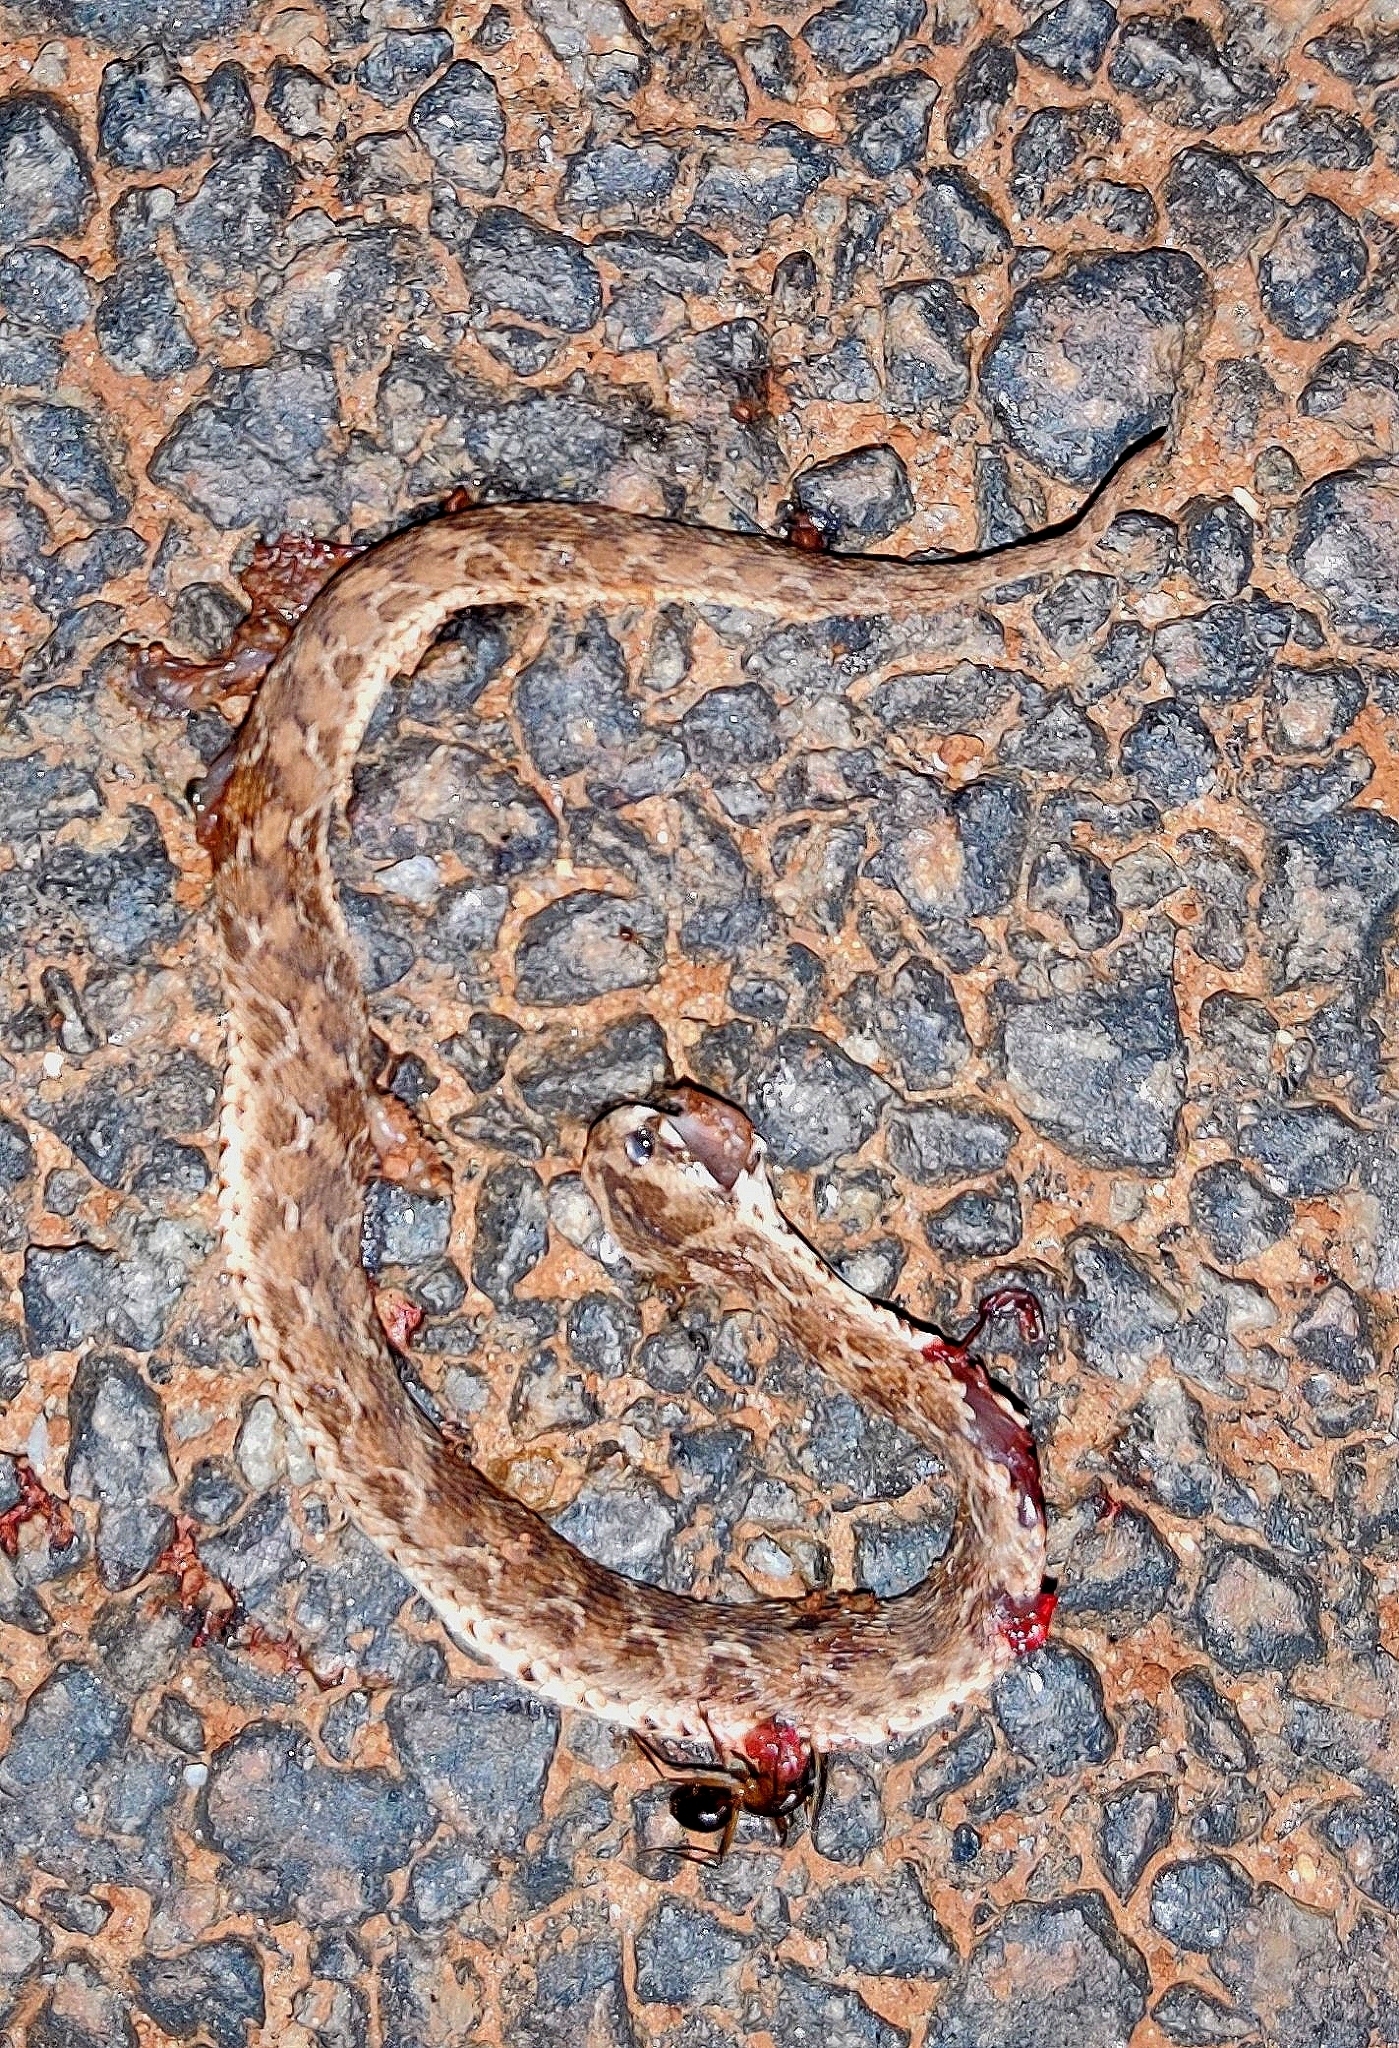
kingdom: Animalia
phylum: Chordata
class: Squamata
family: Viperidae
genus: Echis
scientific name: Echis carinatus
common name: Saw-scaled viper
